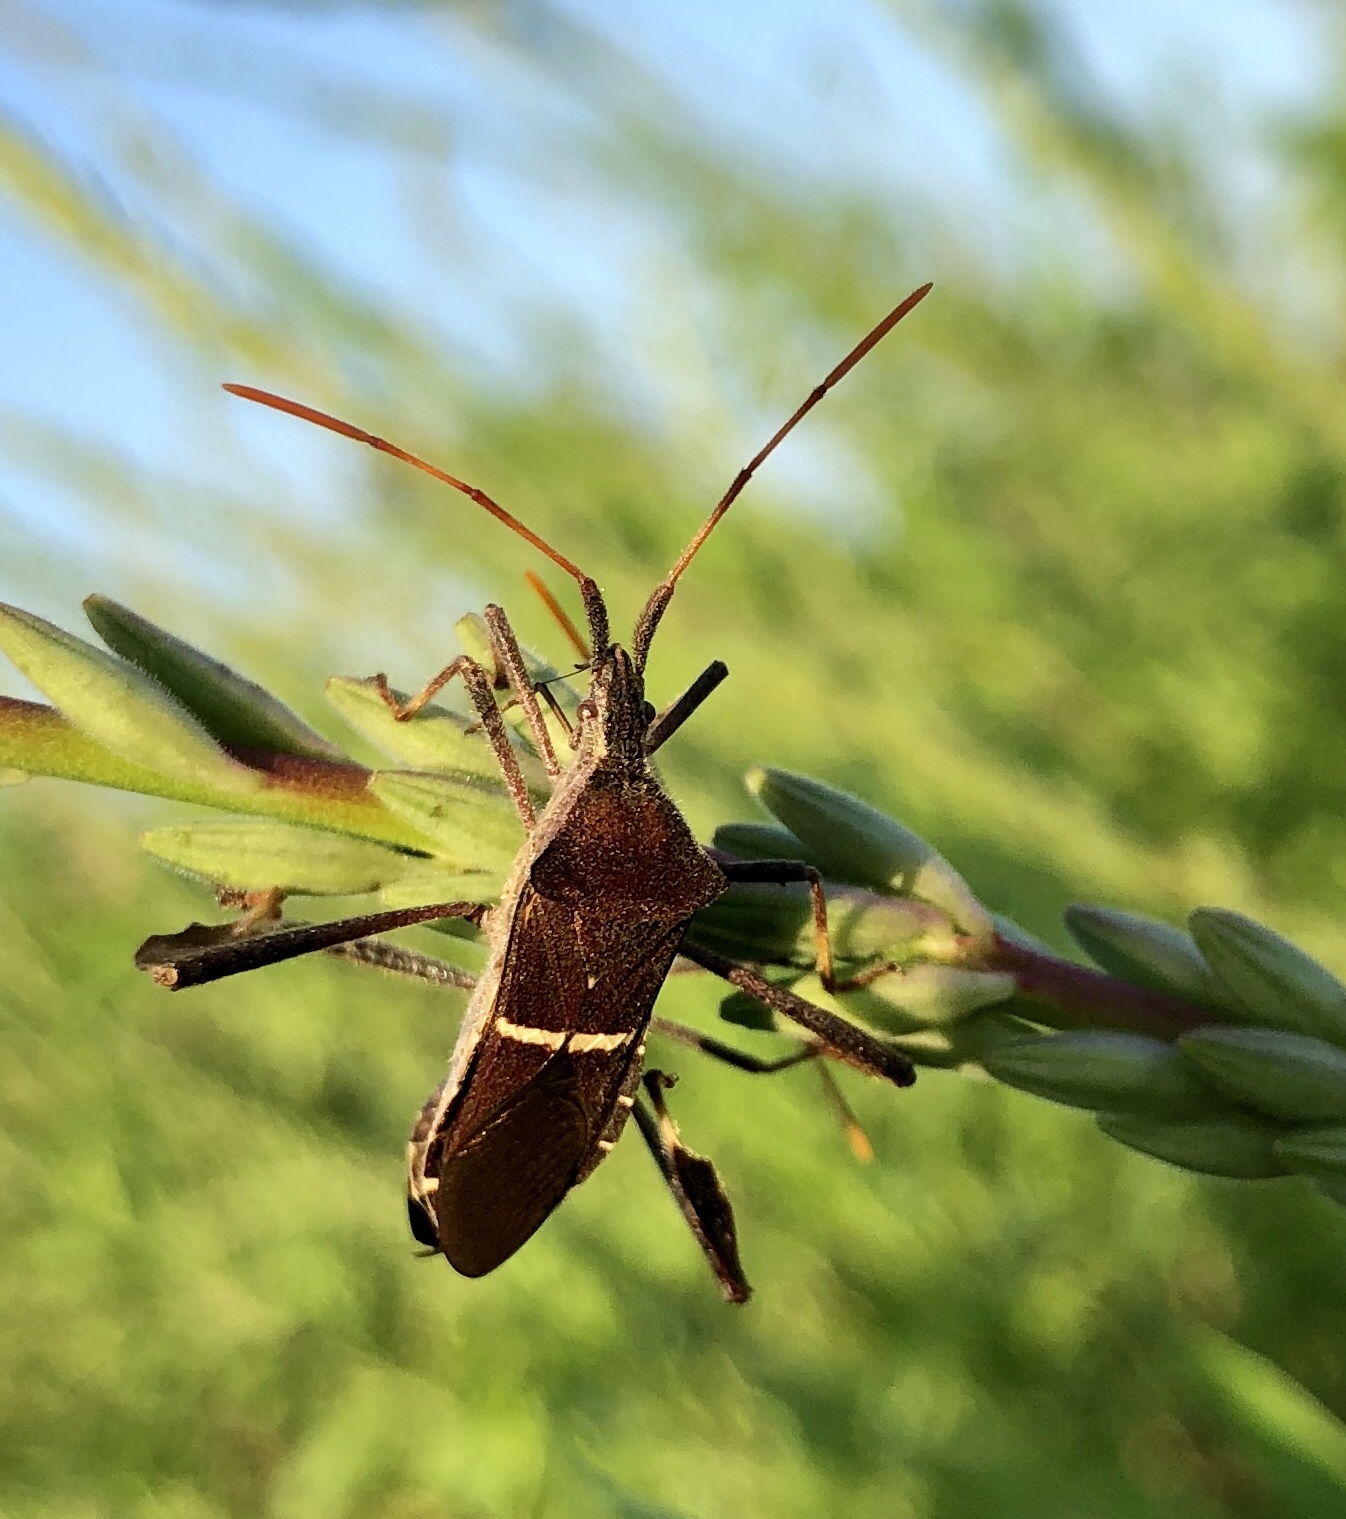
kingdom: Animalia
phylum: Arthropoda
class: Insecta
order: Hemiptera
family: Coreidae
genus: Leptoglossus
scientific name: Leptoglossus phyllopus
